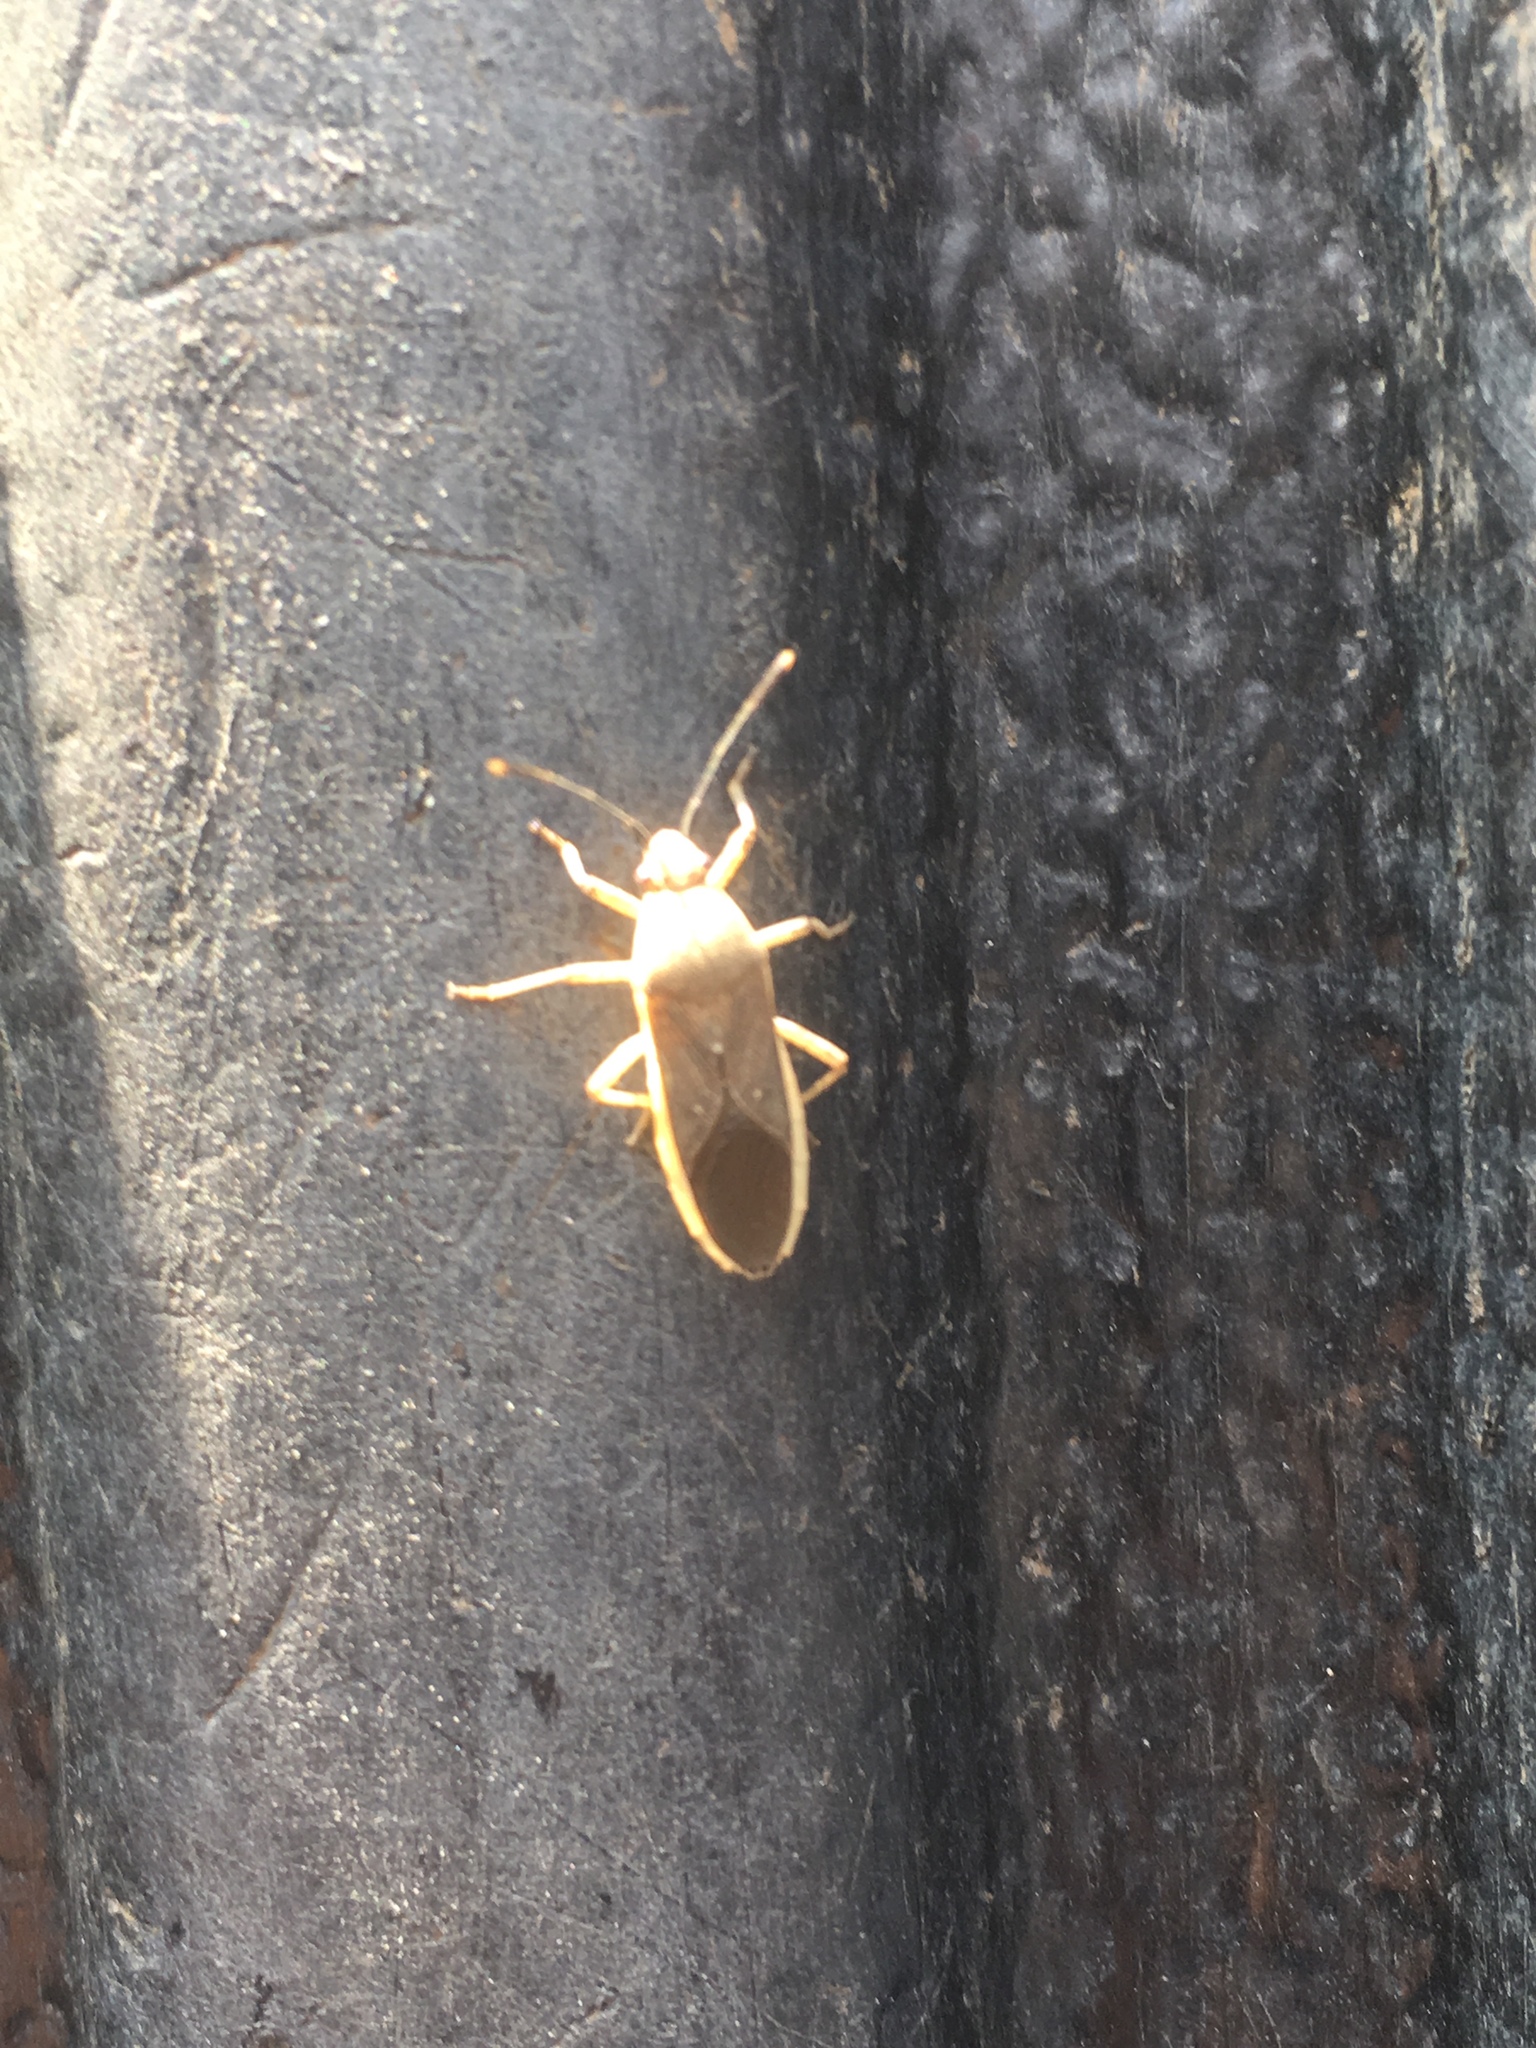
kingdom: Animalia
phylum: Arthropoda
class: Insecta
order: Hemiptera
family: Coreidae
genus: Catorhintha
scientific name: Catorhintha selector
